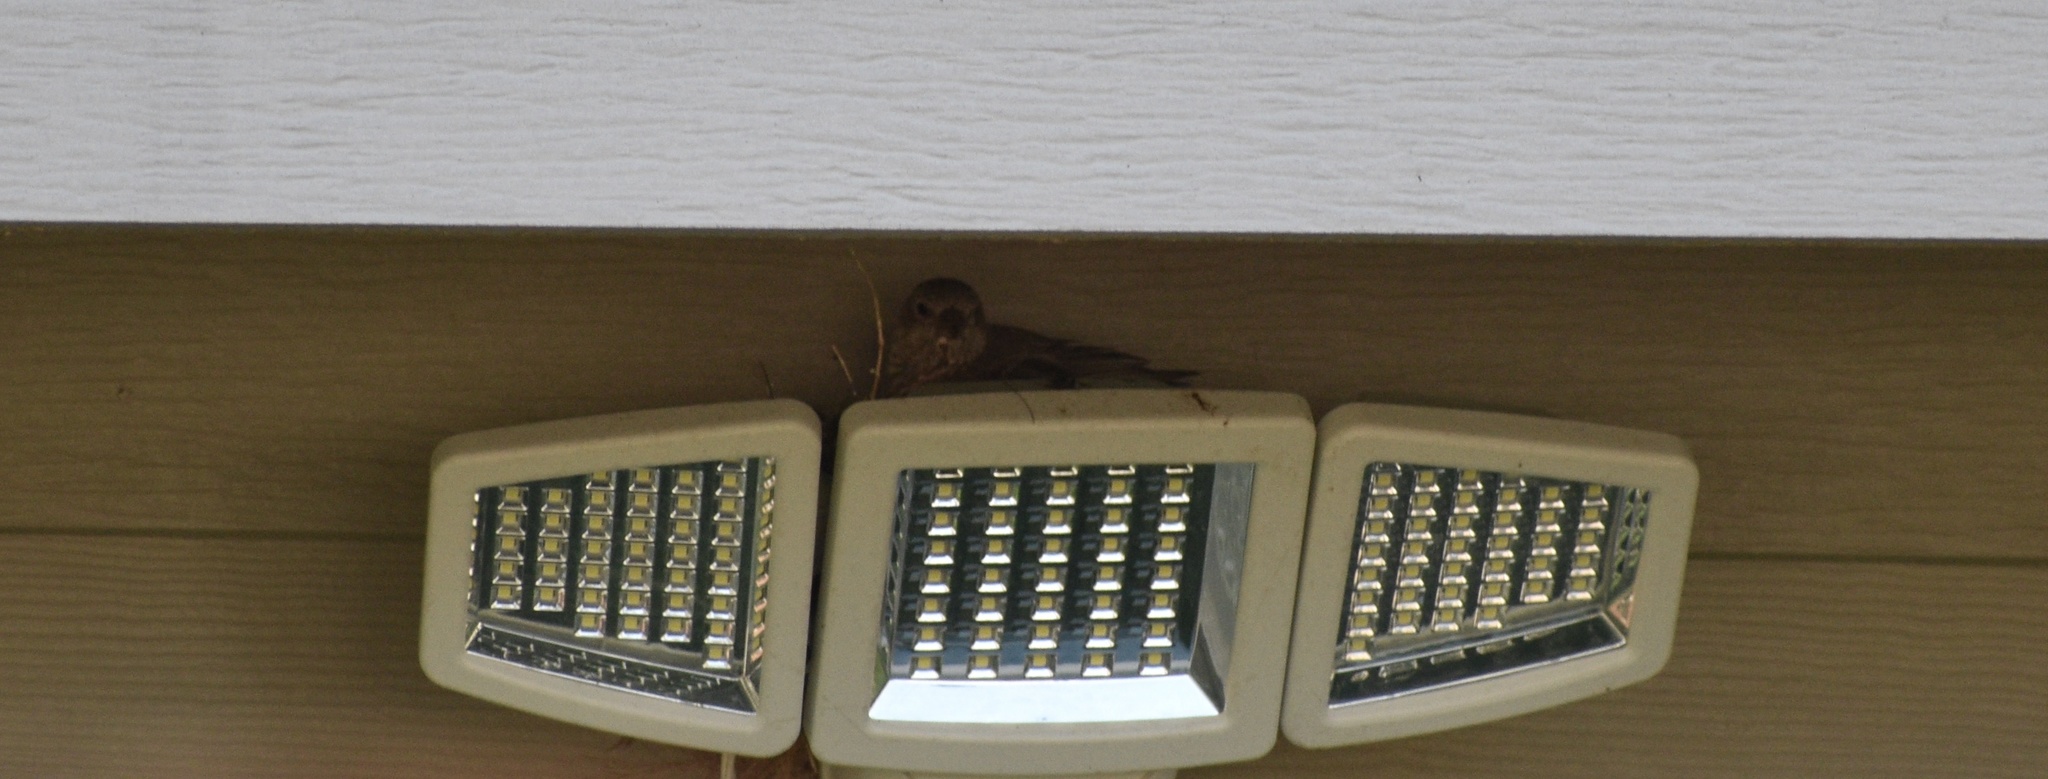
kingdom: Animalia
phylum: Chordata
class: Aves
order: Passeriformes
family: Fringillidae
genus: Haemorhous
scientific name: Haemorhous mexicanus
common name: House finch
